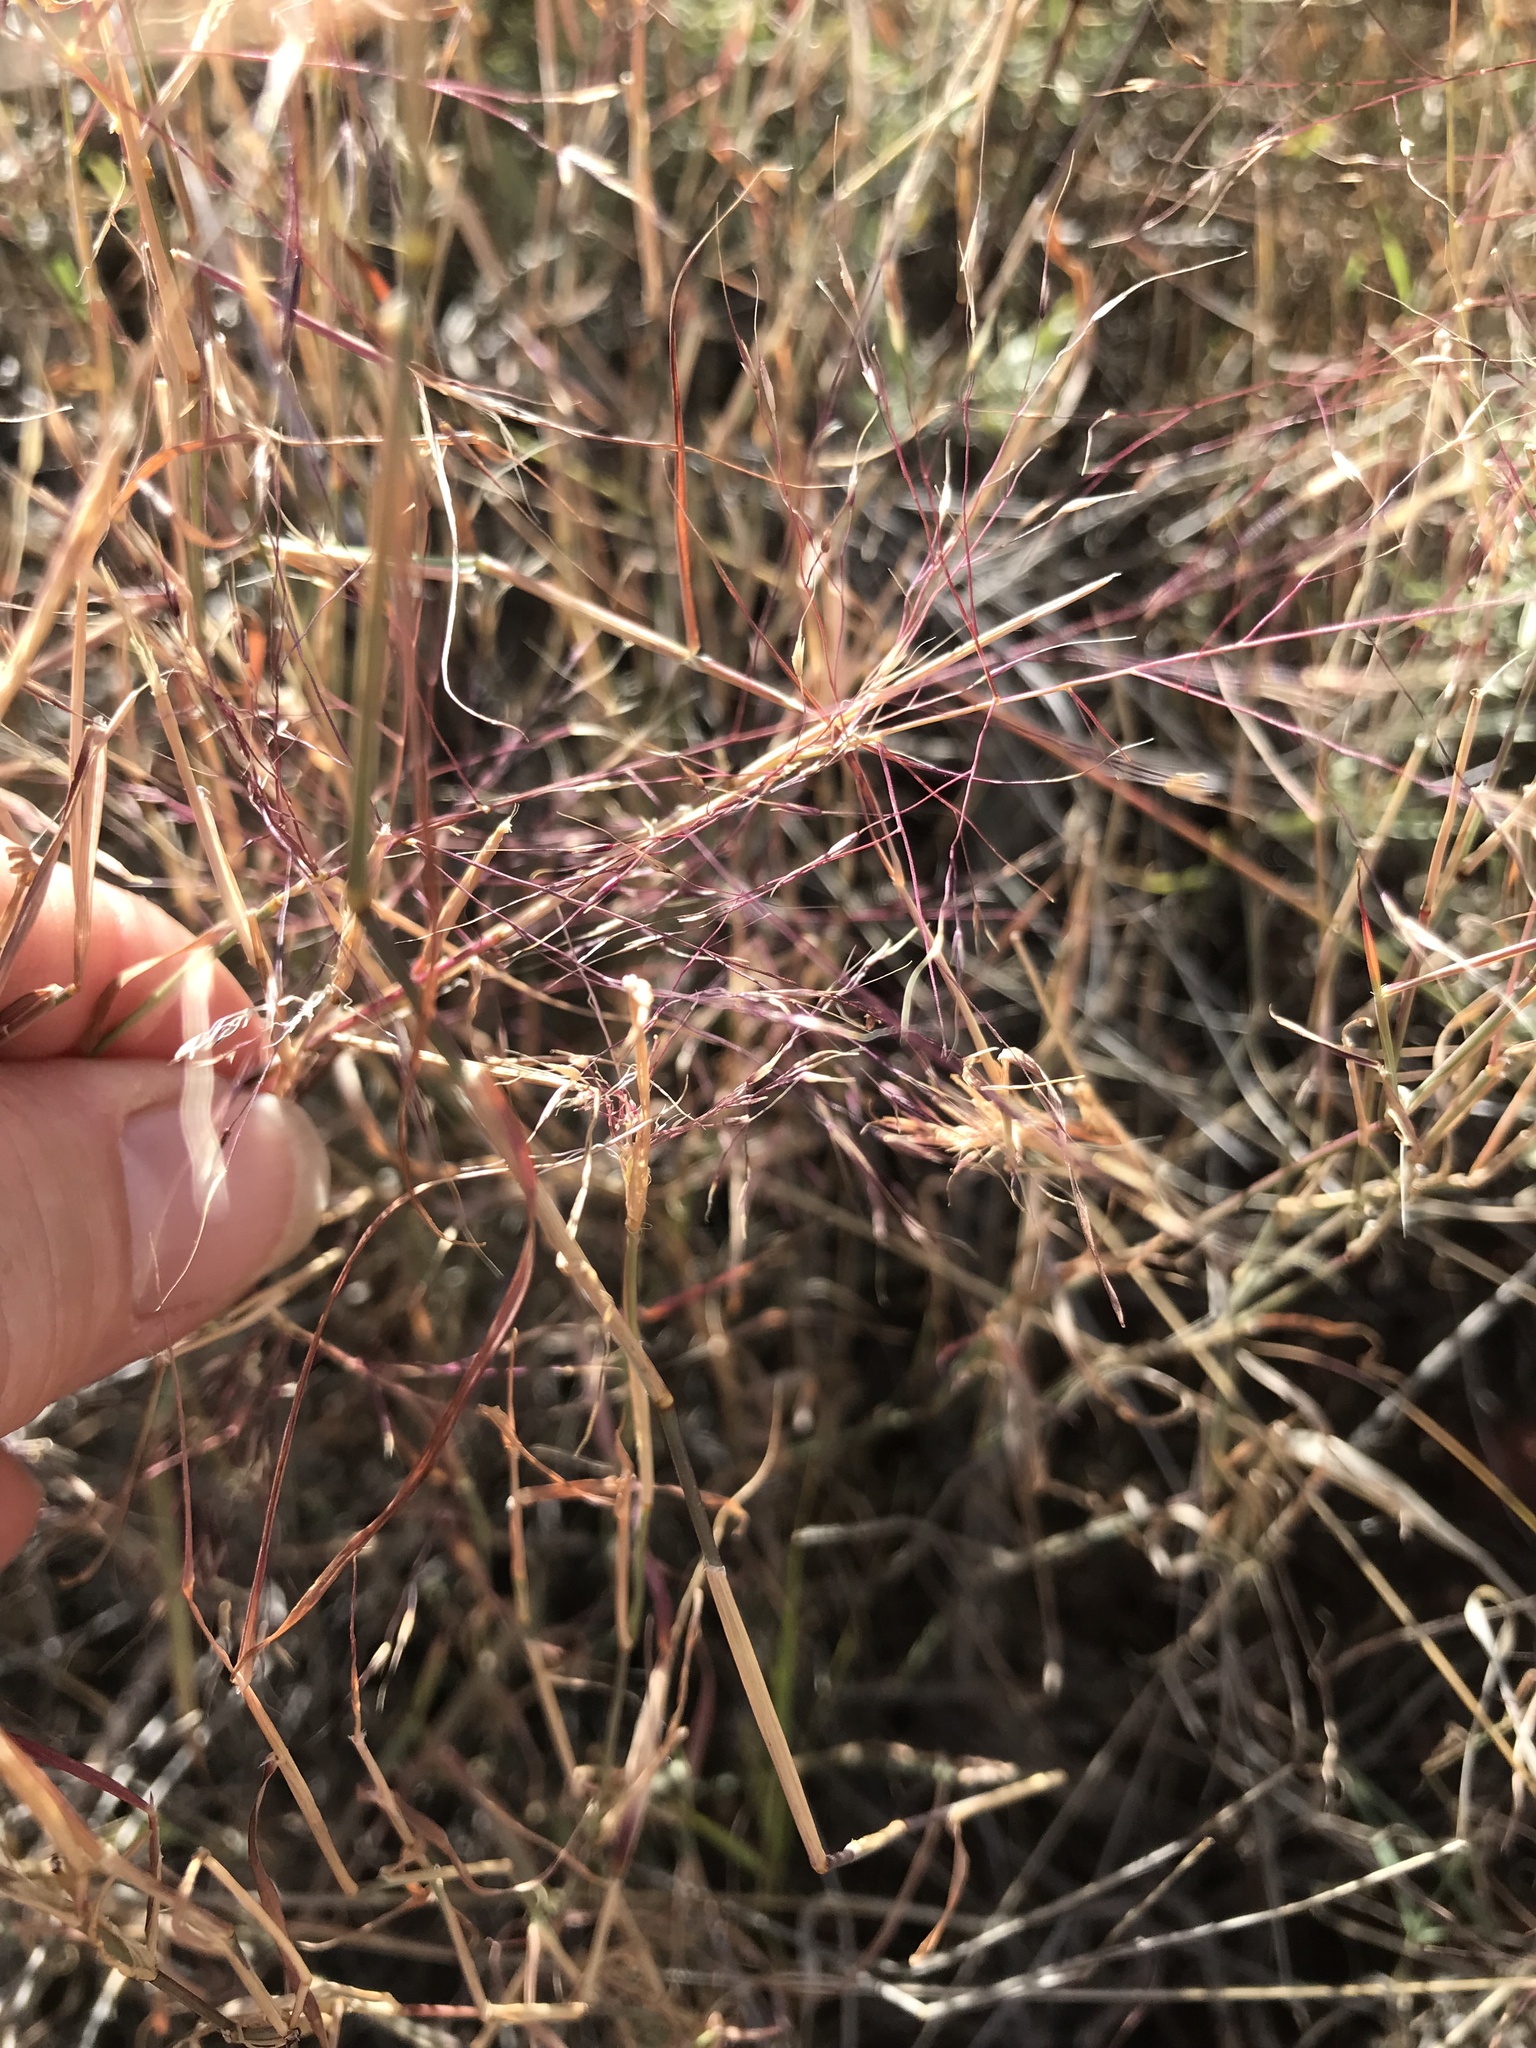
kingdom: Plantae
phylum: Tracheophyta
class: Liliopsida
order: Poales
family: Poaceae
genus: Muhlenbergia
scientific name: Muhlenbergia porteri
